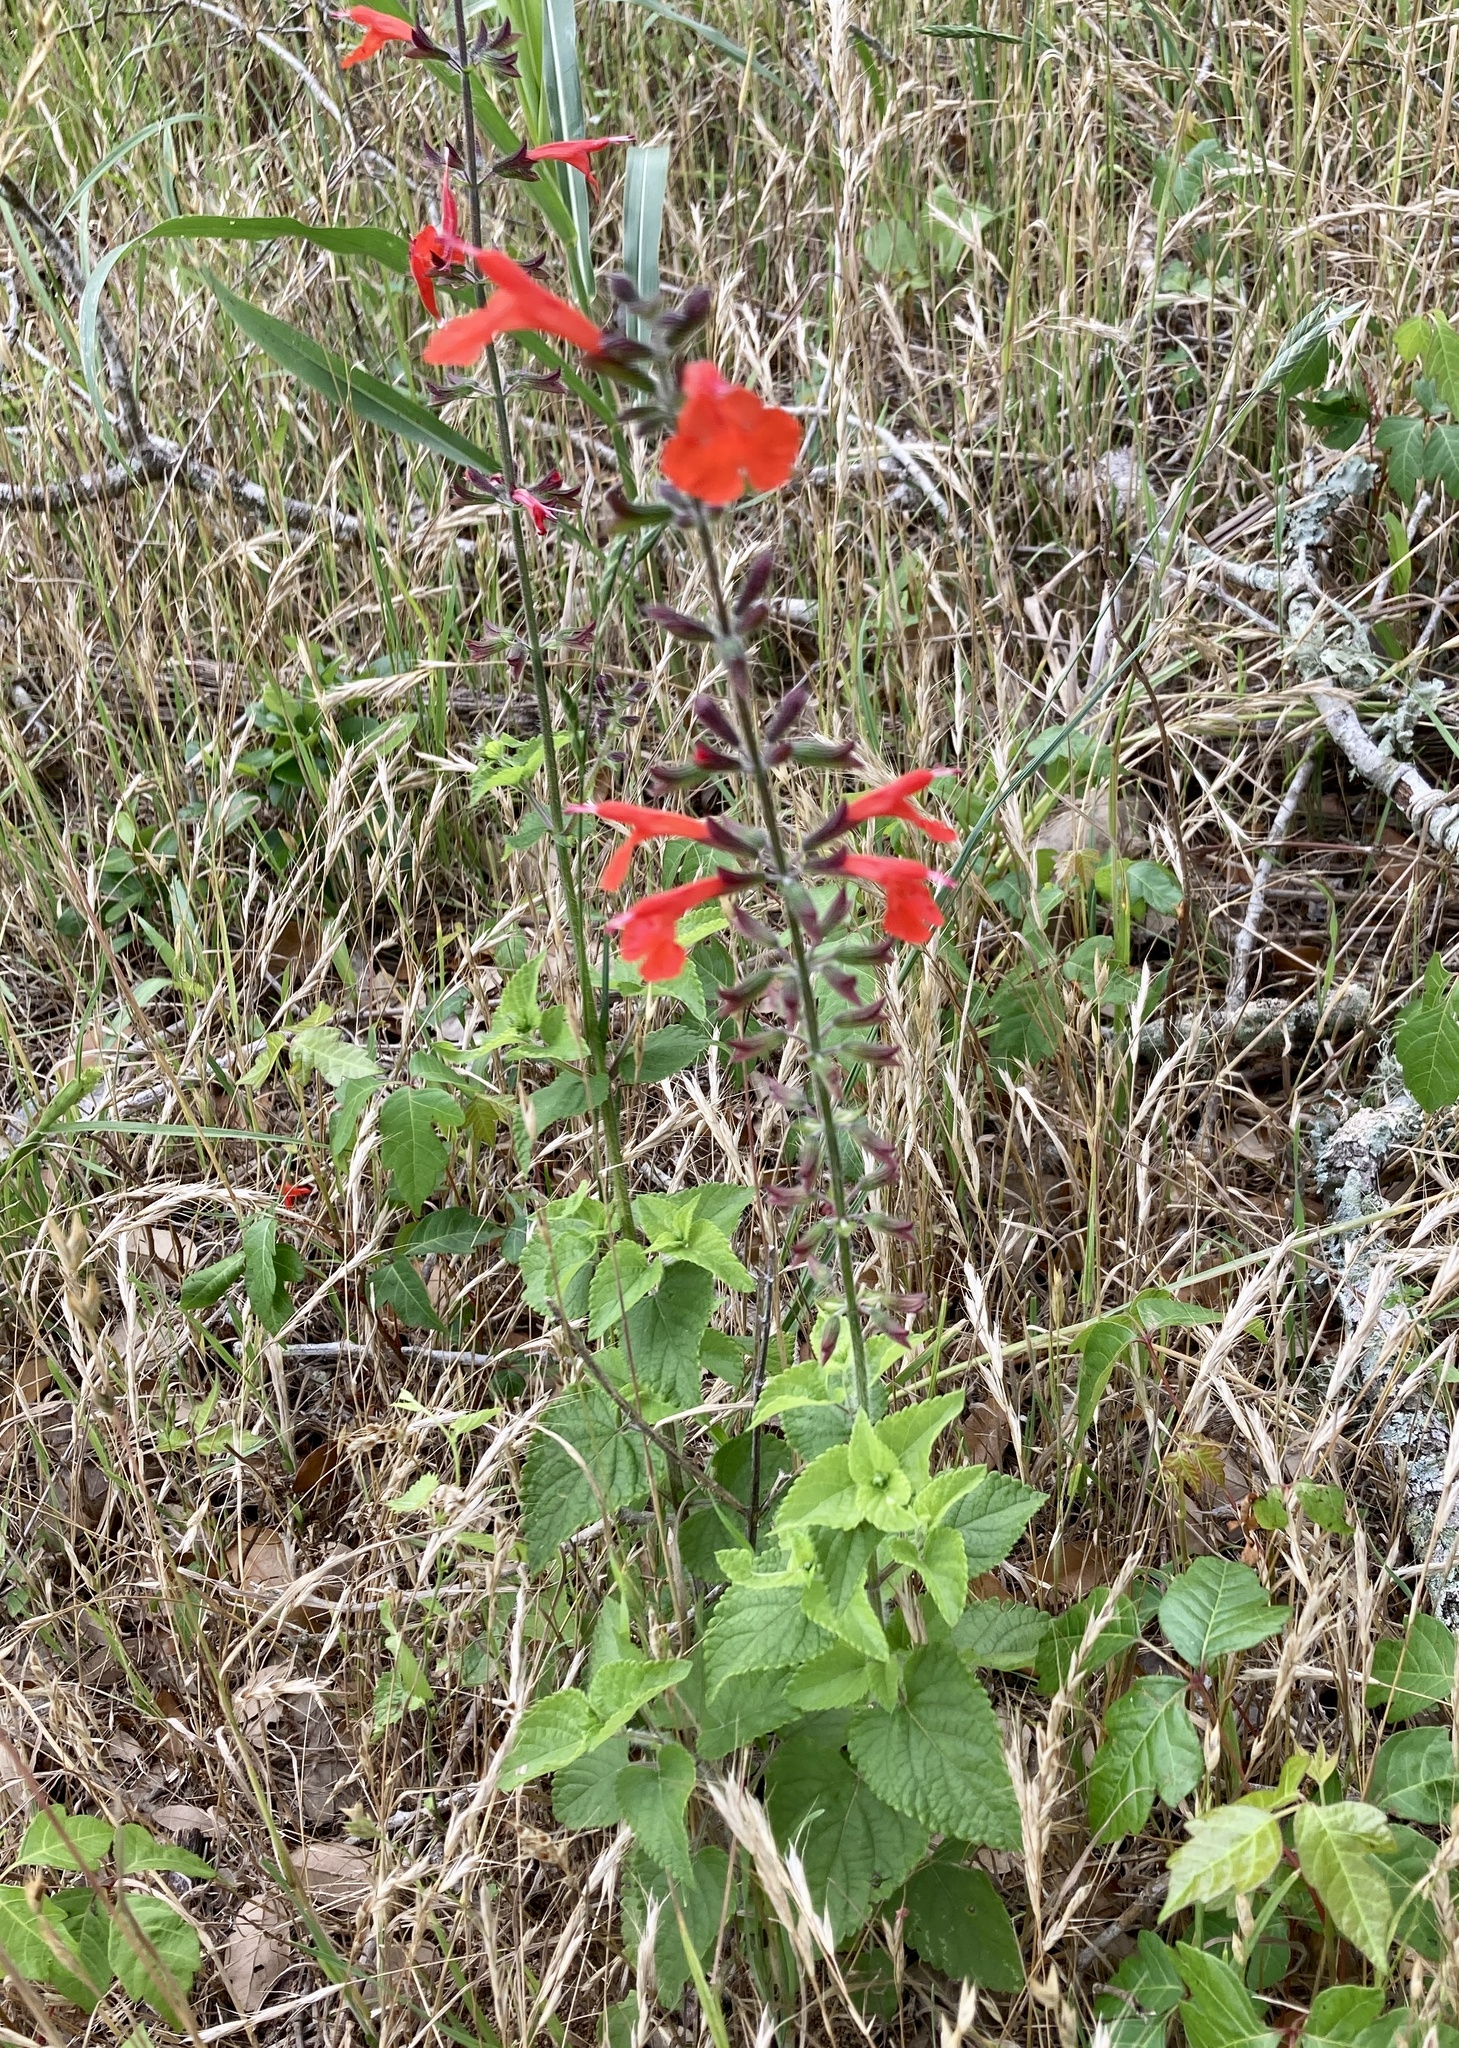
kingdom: Plantae
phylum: Tracheophyta
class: Magnoliopsida
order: Lamiales
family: Lamiaceae
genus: Salvia
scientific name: Salvia coccinea
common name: Blood sage
